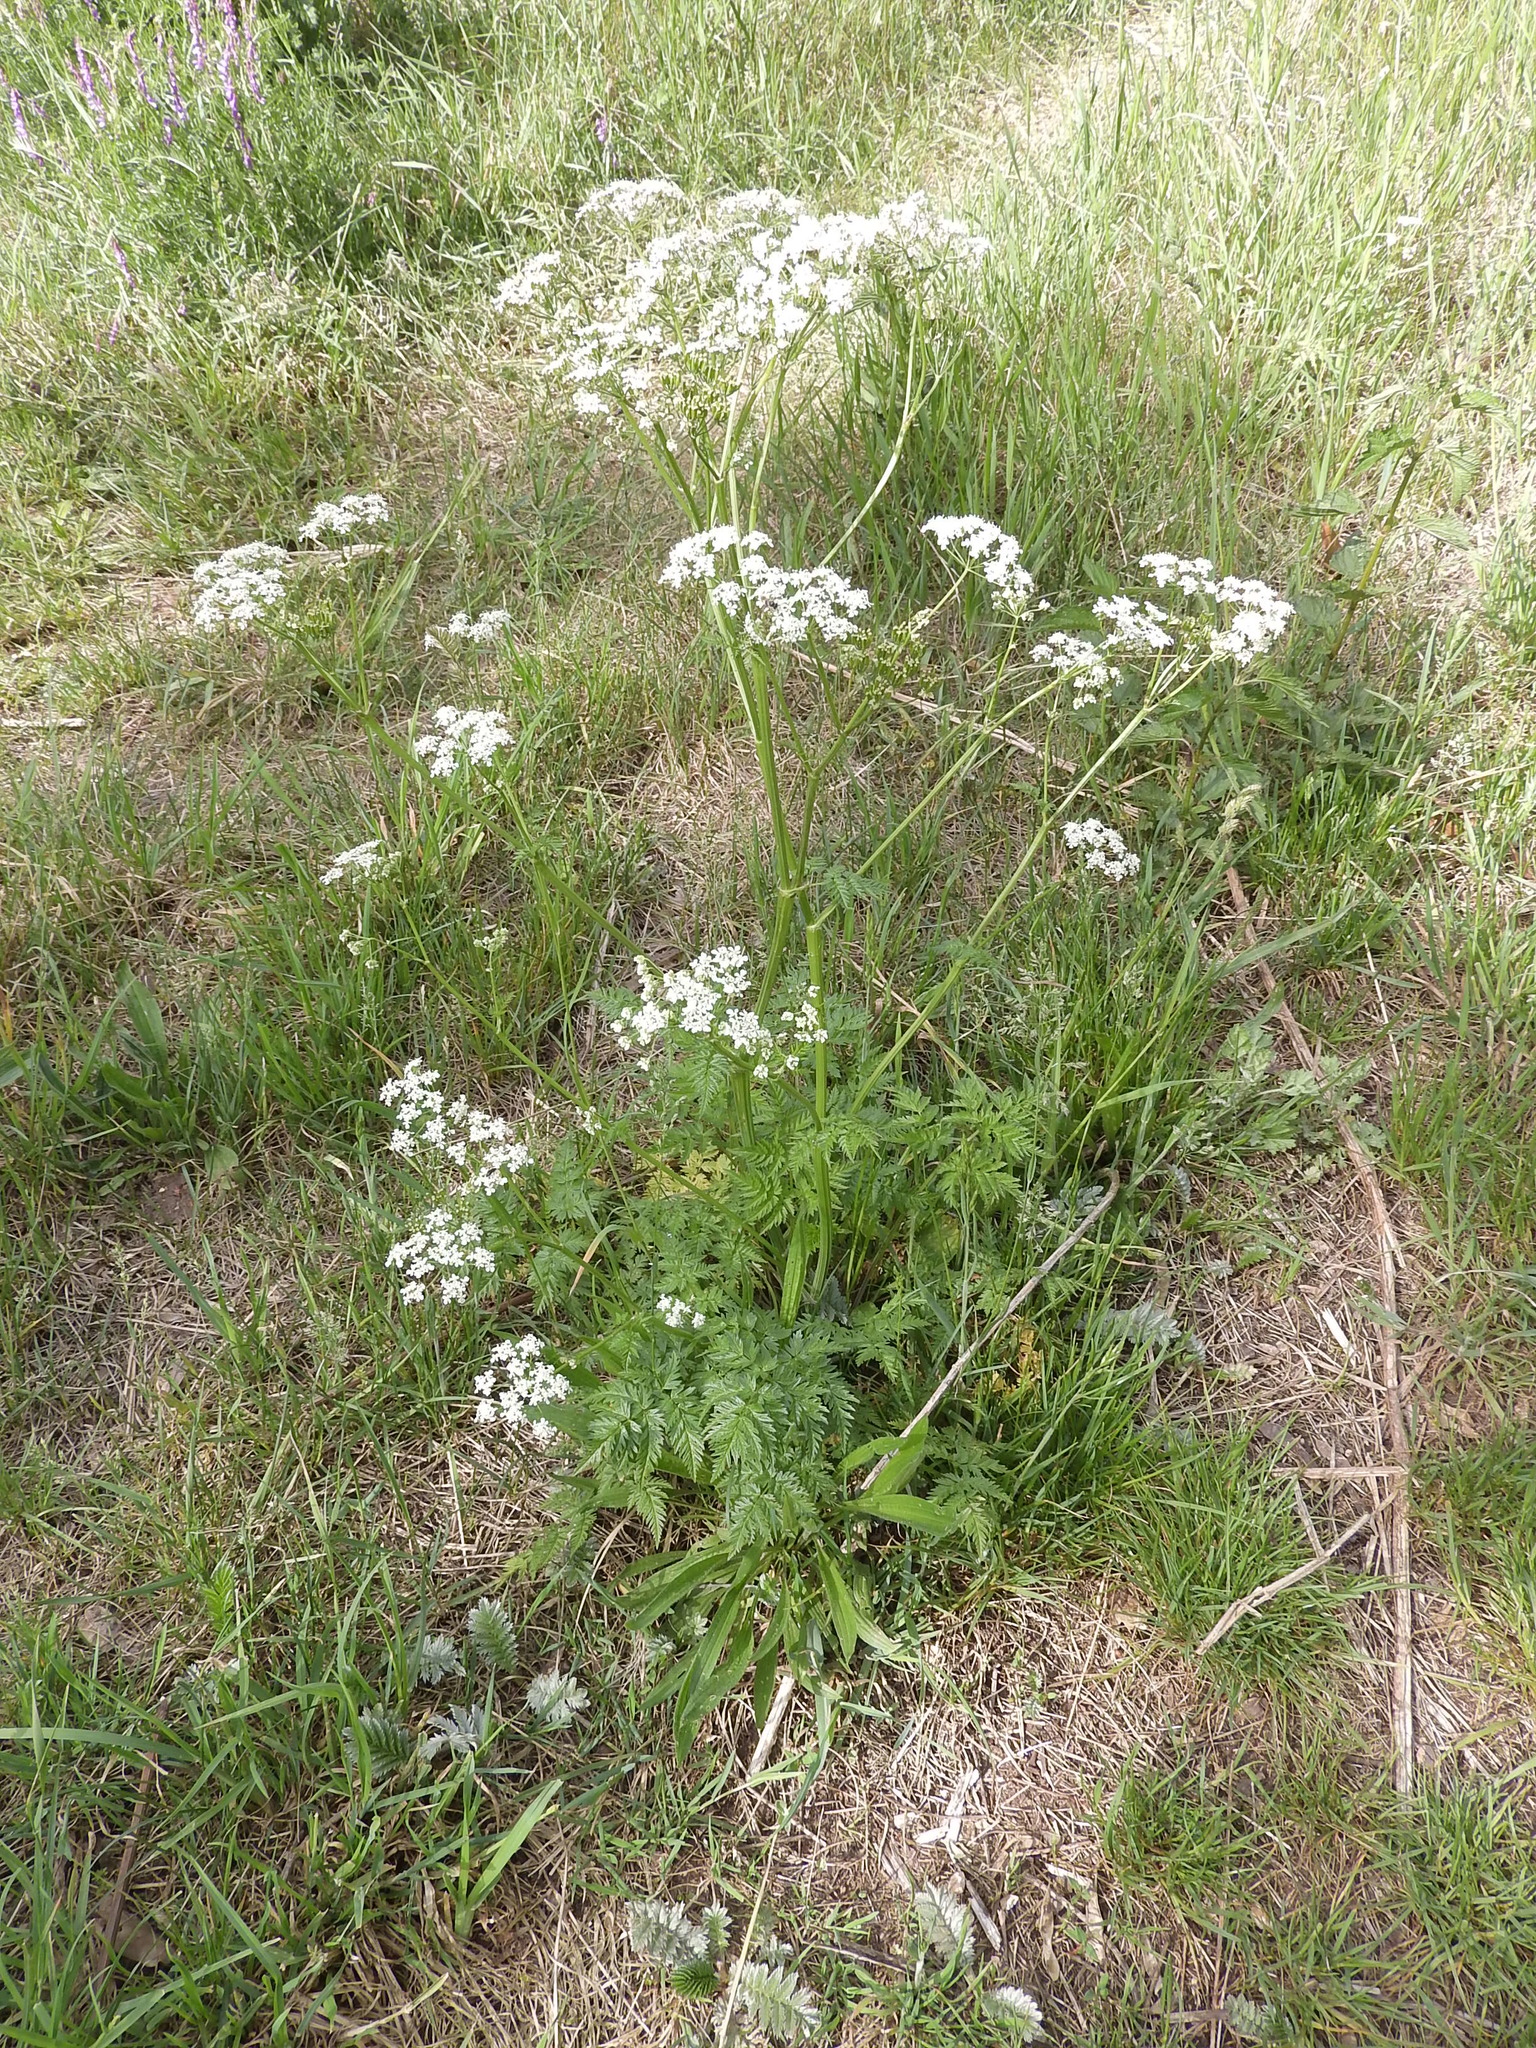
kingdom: Plantae
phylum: Tracheophyta
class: Magnoliopsida
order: Apiales
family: Apiaceae
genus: Anthriscus
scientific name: Anthriscus sylvestris
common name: Cow parsley
